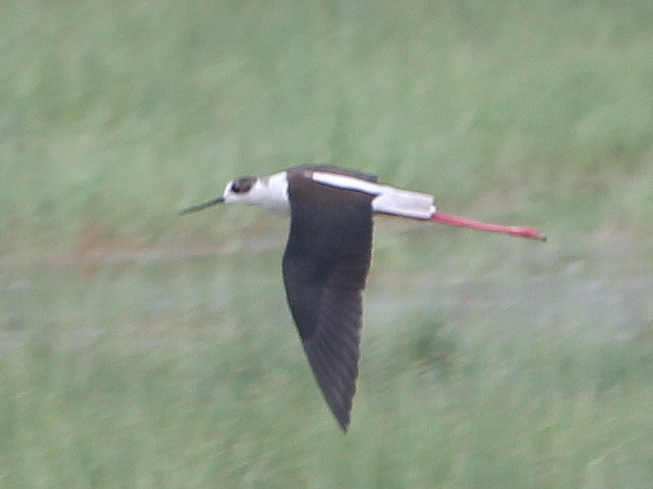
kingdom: Animalia
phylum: Chordata
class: Aves
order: Charadriiformes
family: Recurvirostridae
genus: Himantopus
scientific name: Himantopus himantopus
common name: Black-winged stilt
